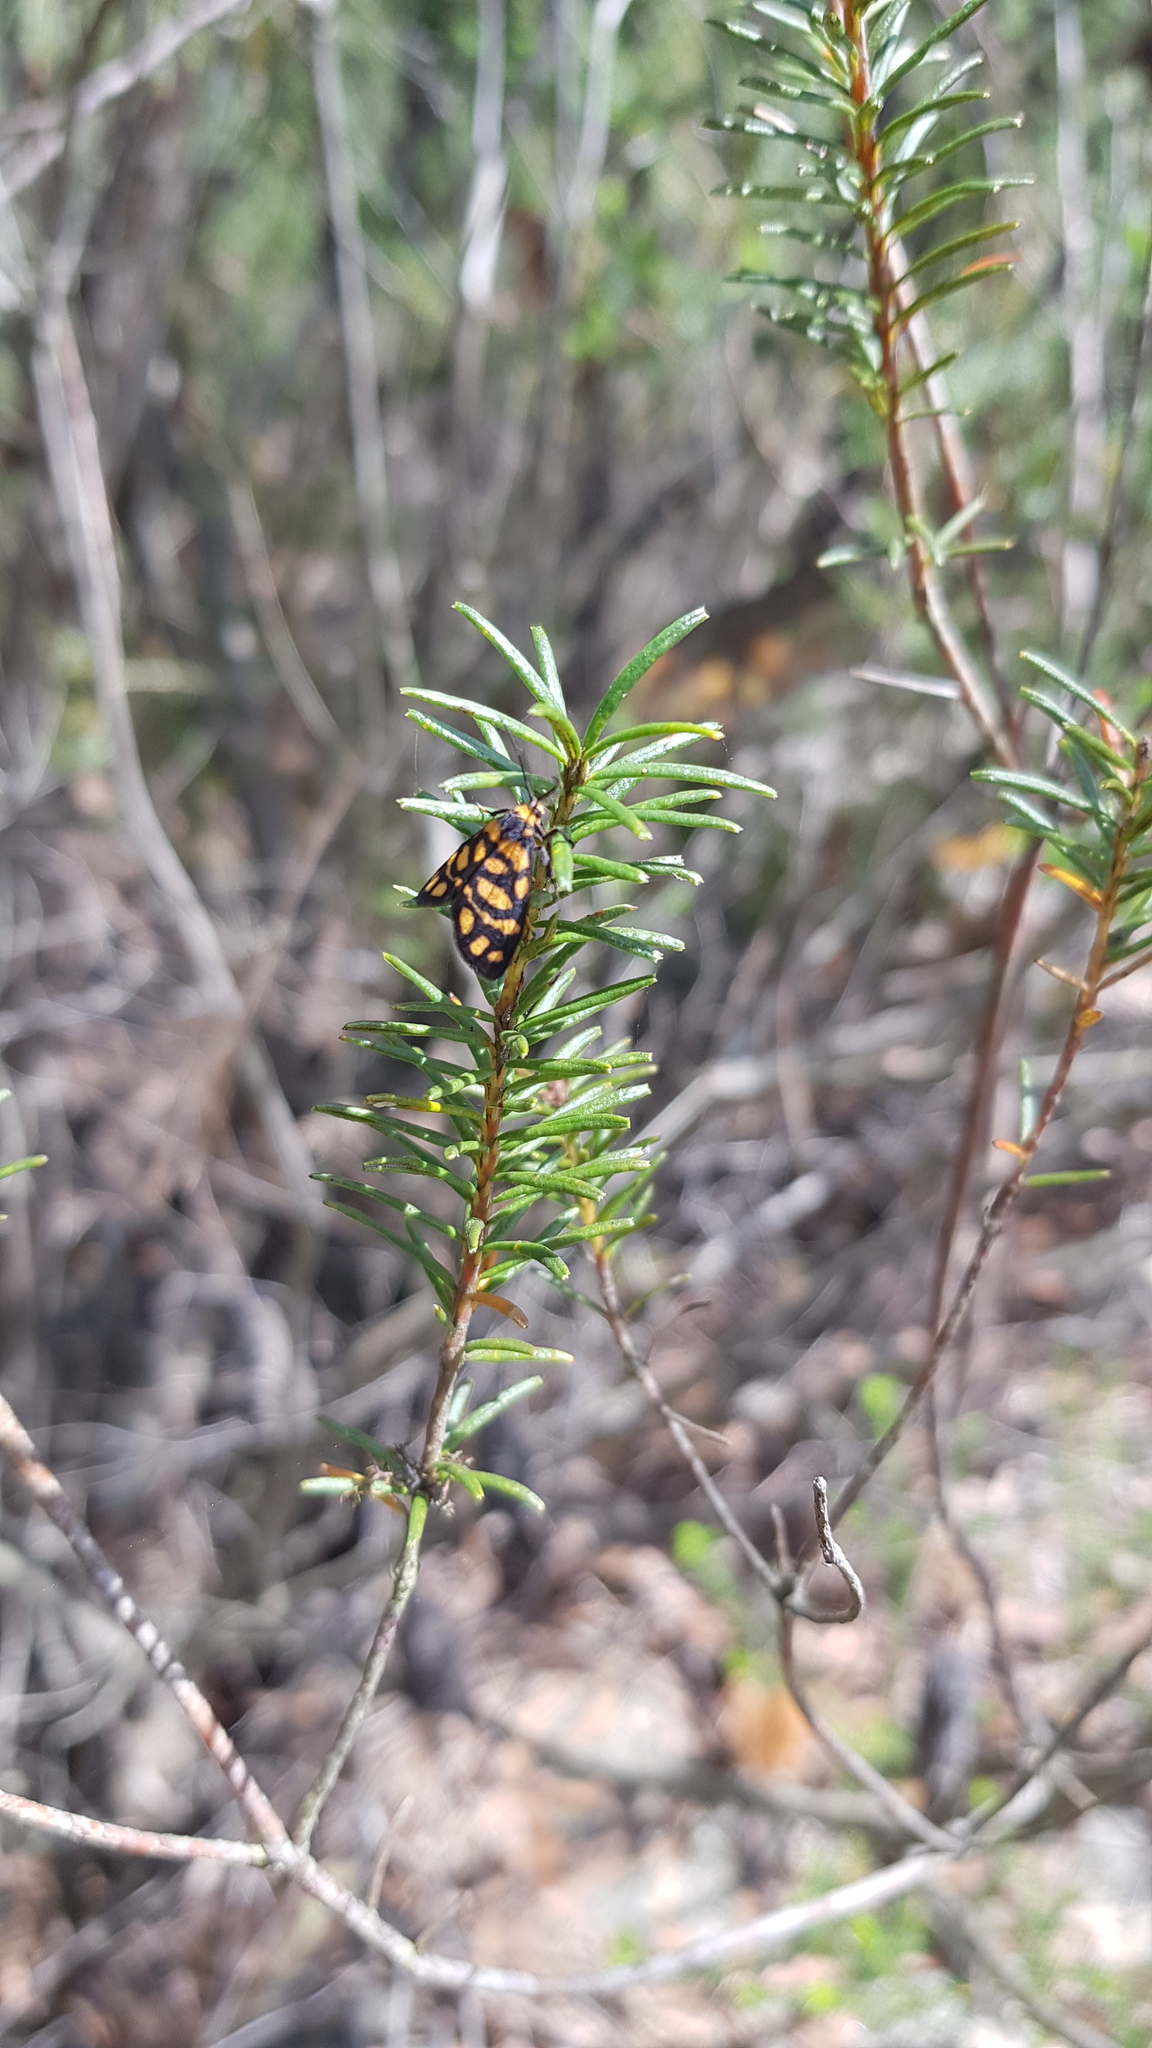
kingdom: Animalia
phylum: Arthropoda
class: Insecta
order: Lepidoptera
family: Erebidae
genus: Asura
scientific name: Asura lydia
